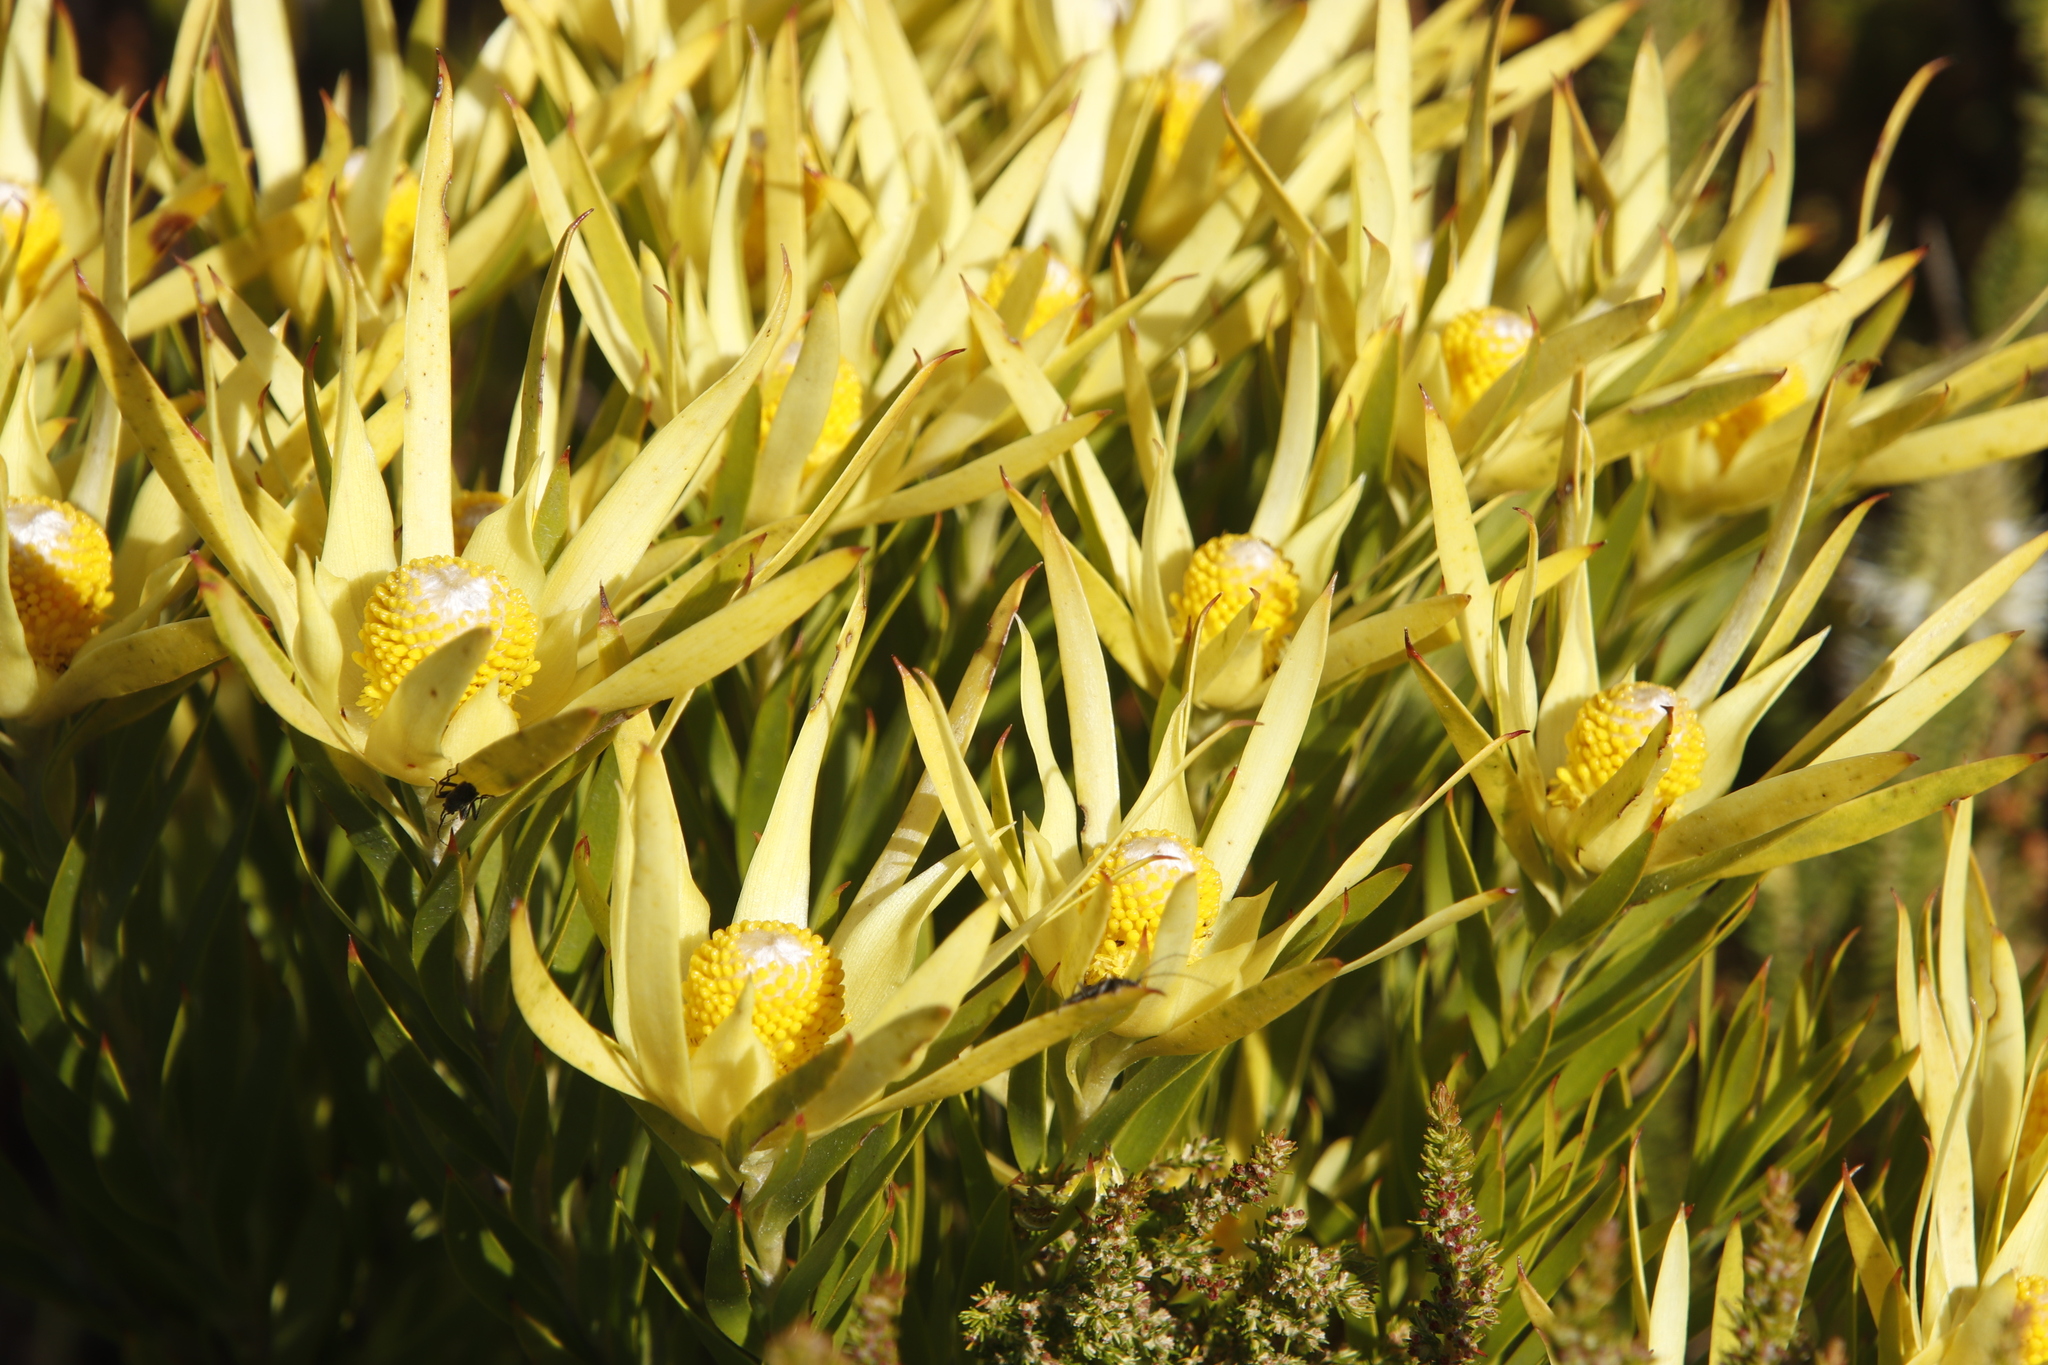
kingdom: Plantae
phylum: Tracheophyta
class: Magnoliopsida
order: Proteales
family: Proteaceae
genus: Leucadendron
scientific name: Leucadendron xanthoconus
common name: Sickle-leaf conebush
